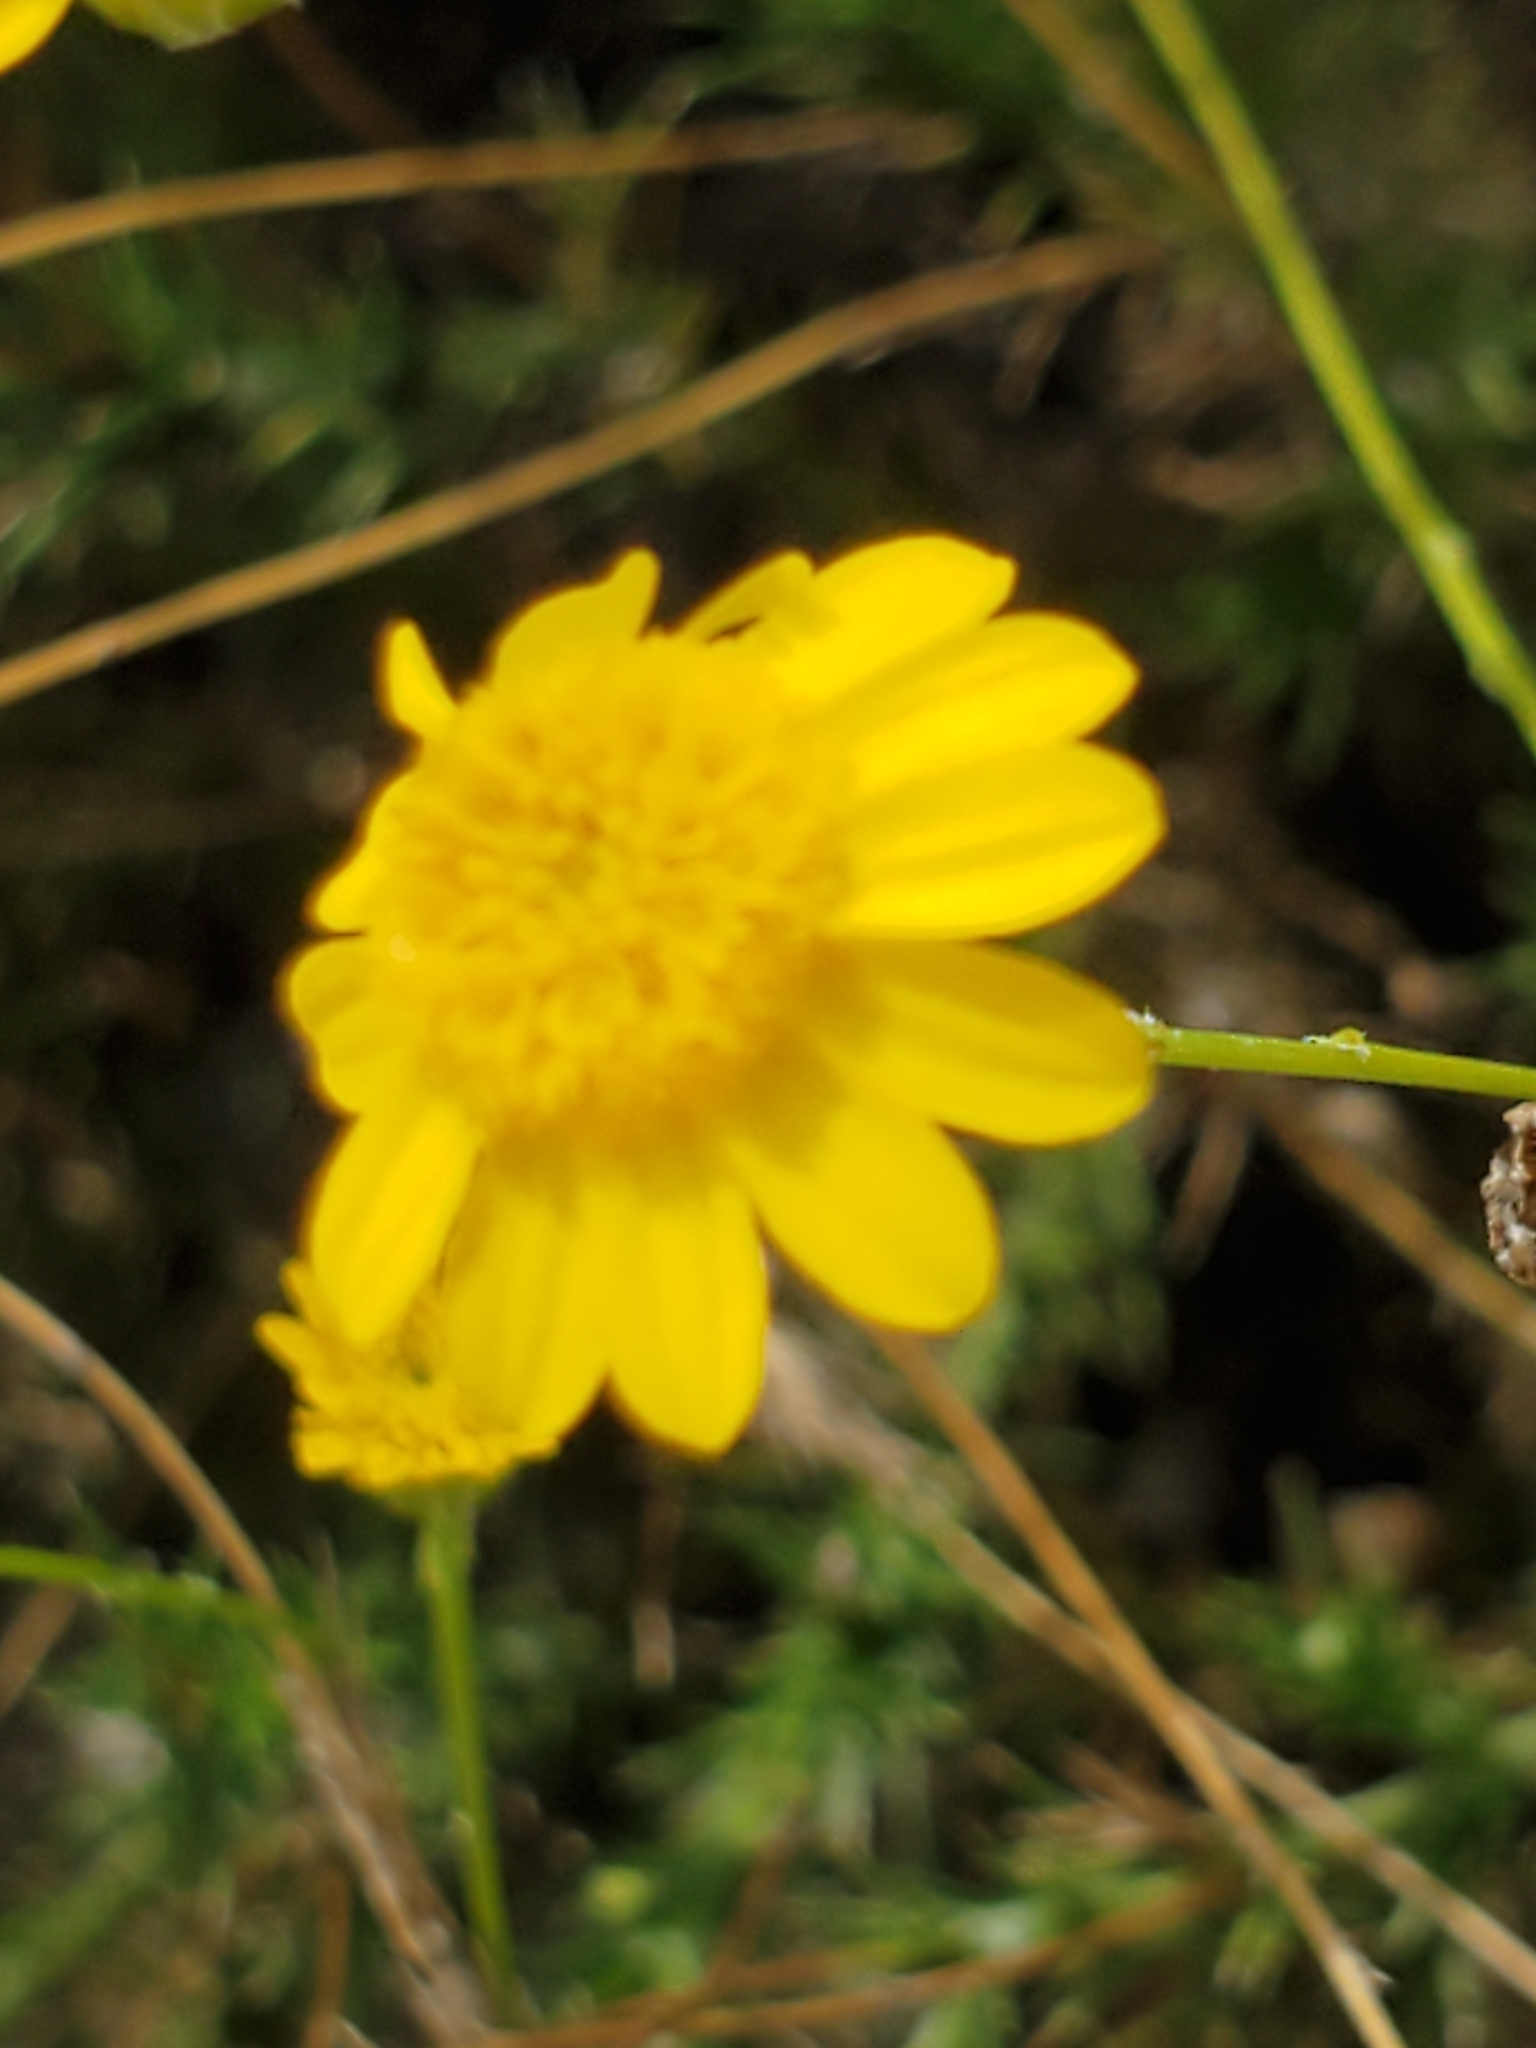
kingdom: Plantae
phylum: Tracheophyta
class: Magnoliopsida
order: Asterales
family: Asteraceae
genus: Thymophylla
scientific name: Thymophylla pentachaeta
